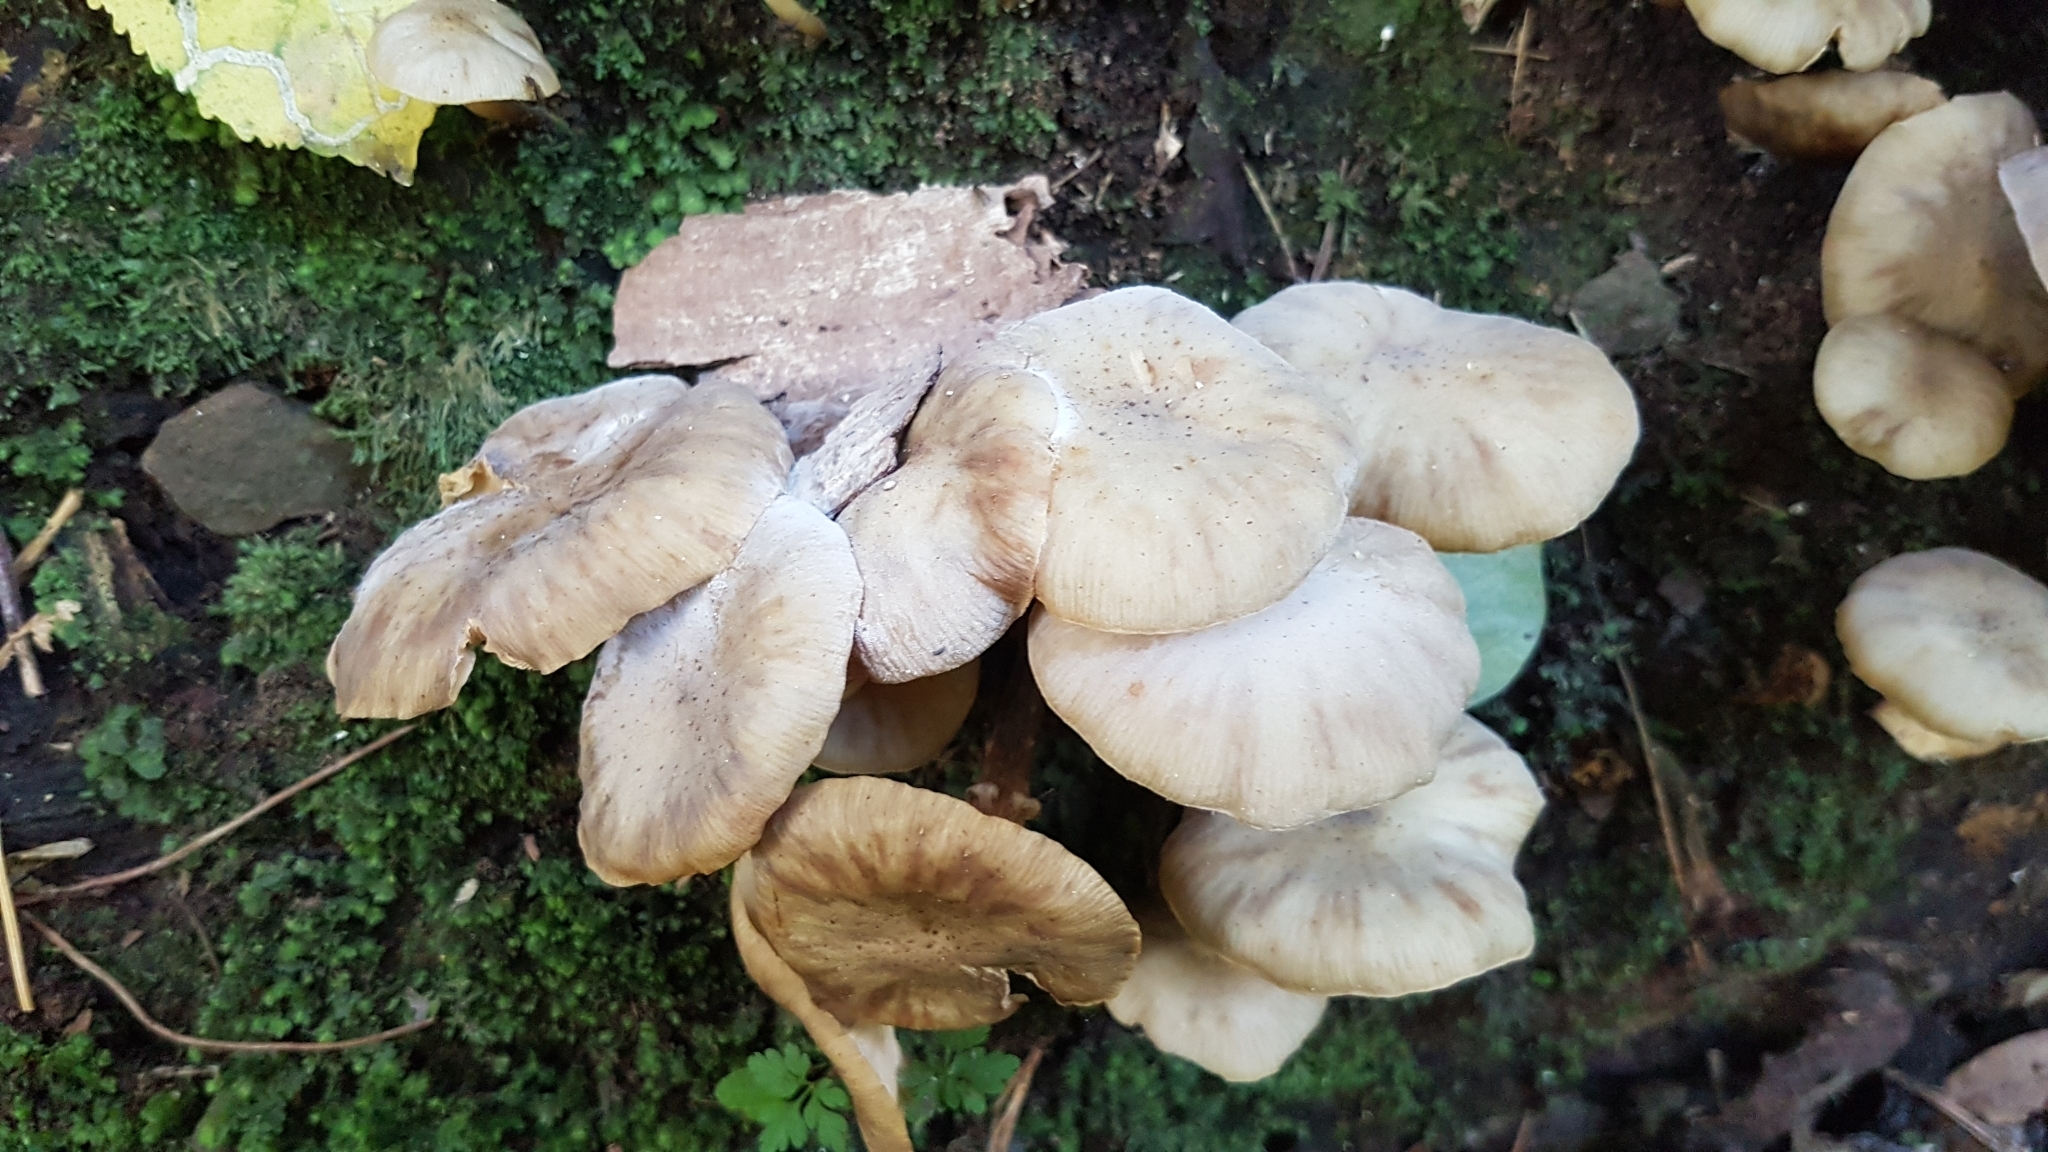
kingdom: Fungi
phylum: Basidiomycota
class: Agaricomycetes
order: Agaricales
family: Physalacriaceae
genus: Armillaria
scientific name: Armillaria novae-zelandiae
